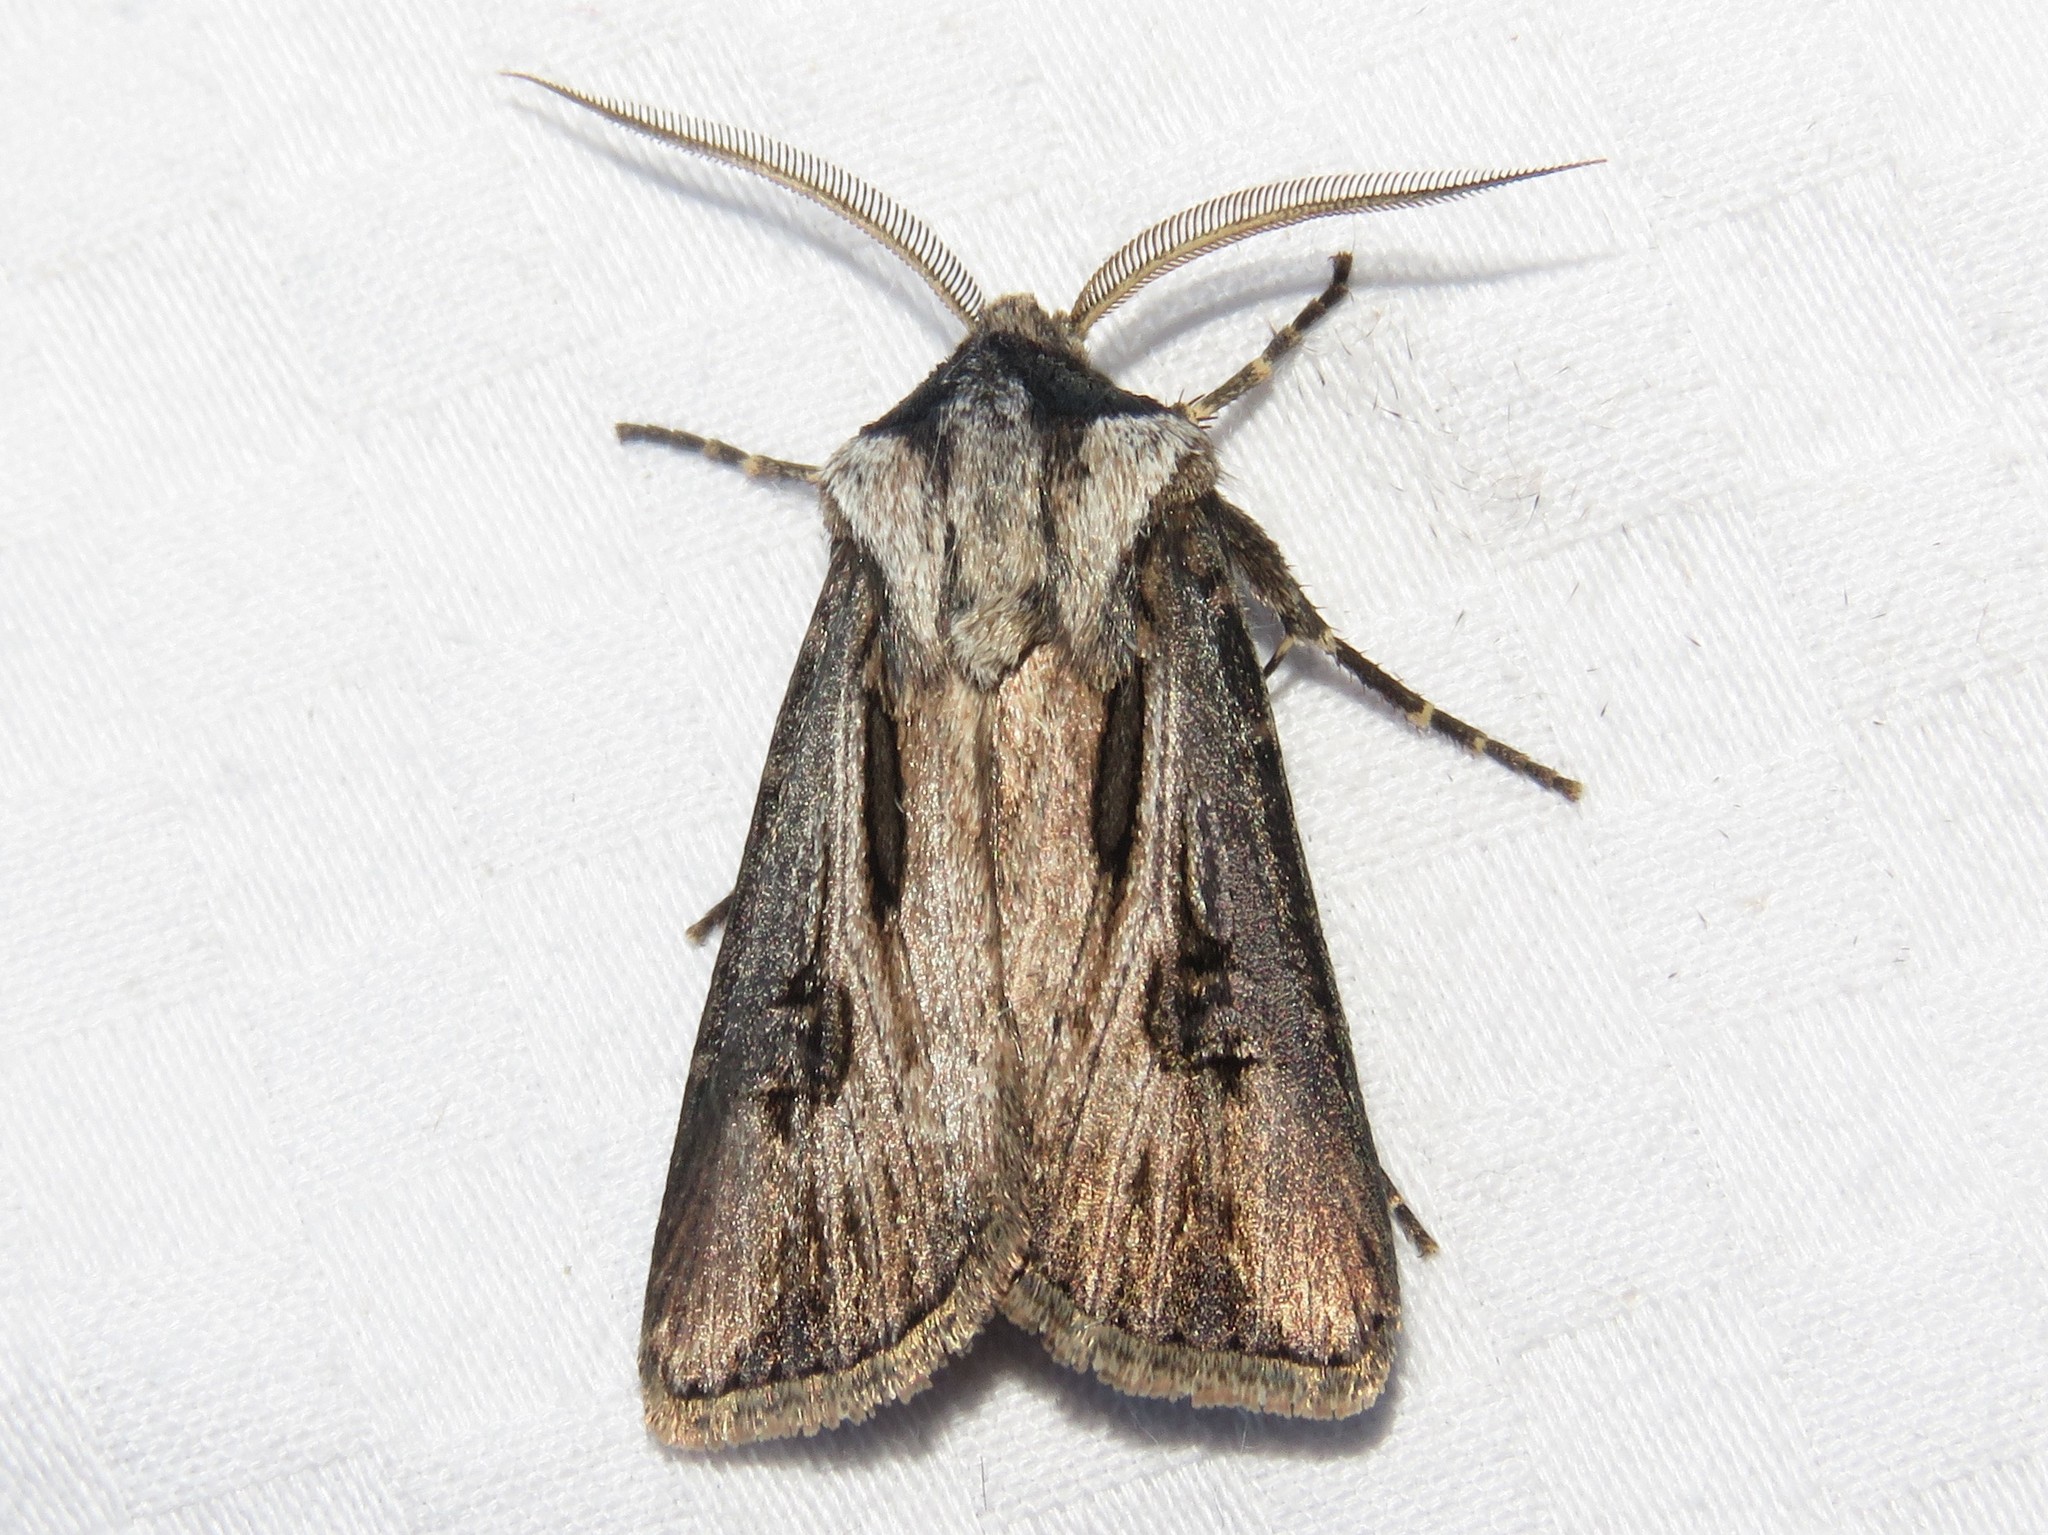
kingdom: Animalia
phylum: Arthropoda
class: Insecta
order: Lepidoptera
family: Noctuidae
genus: Agrotis
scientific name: Agrotis venerabilis
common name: Venerable dart
